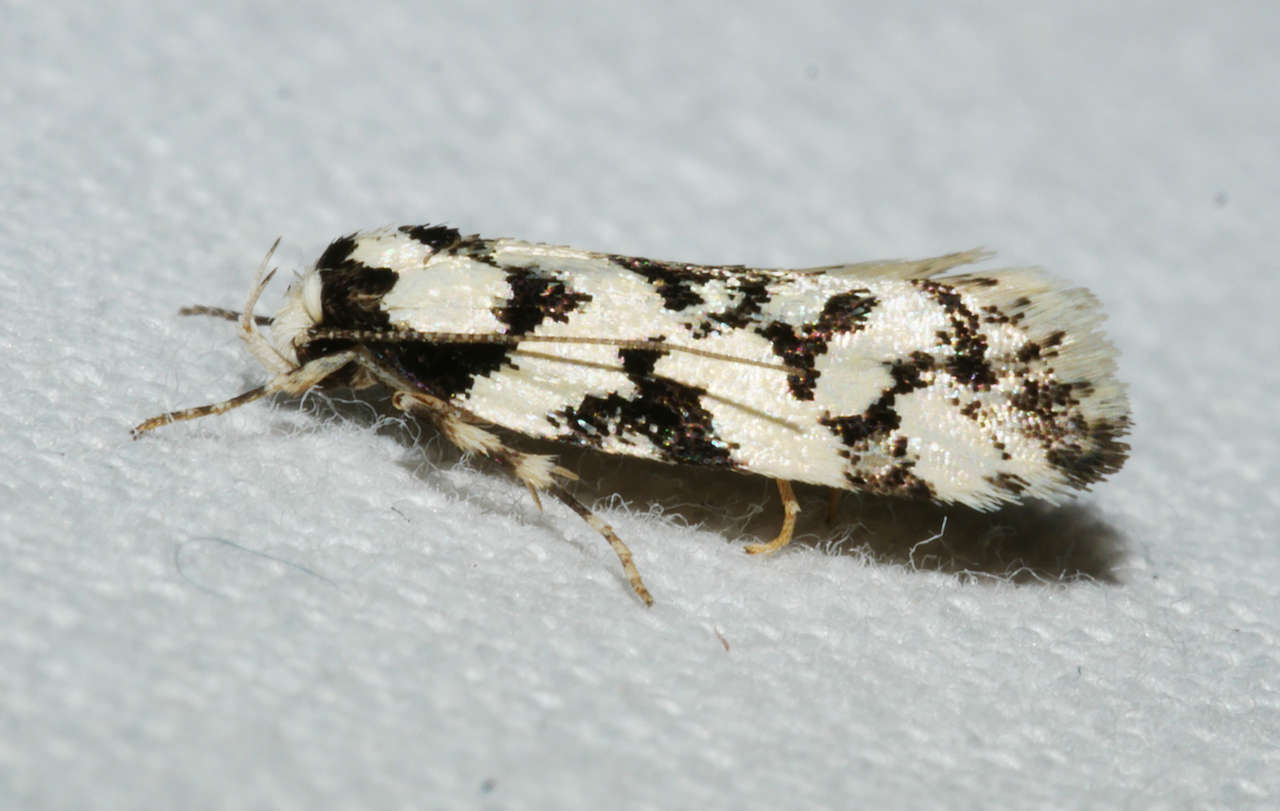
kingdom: Animalia
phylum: Arthropoda
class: Insecta
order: Lepidoptera
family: Oecophoridae
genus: Cosmaresta
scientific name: Cosmaresta hyphanta
